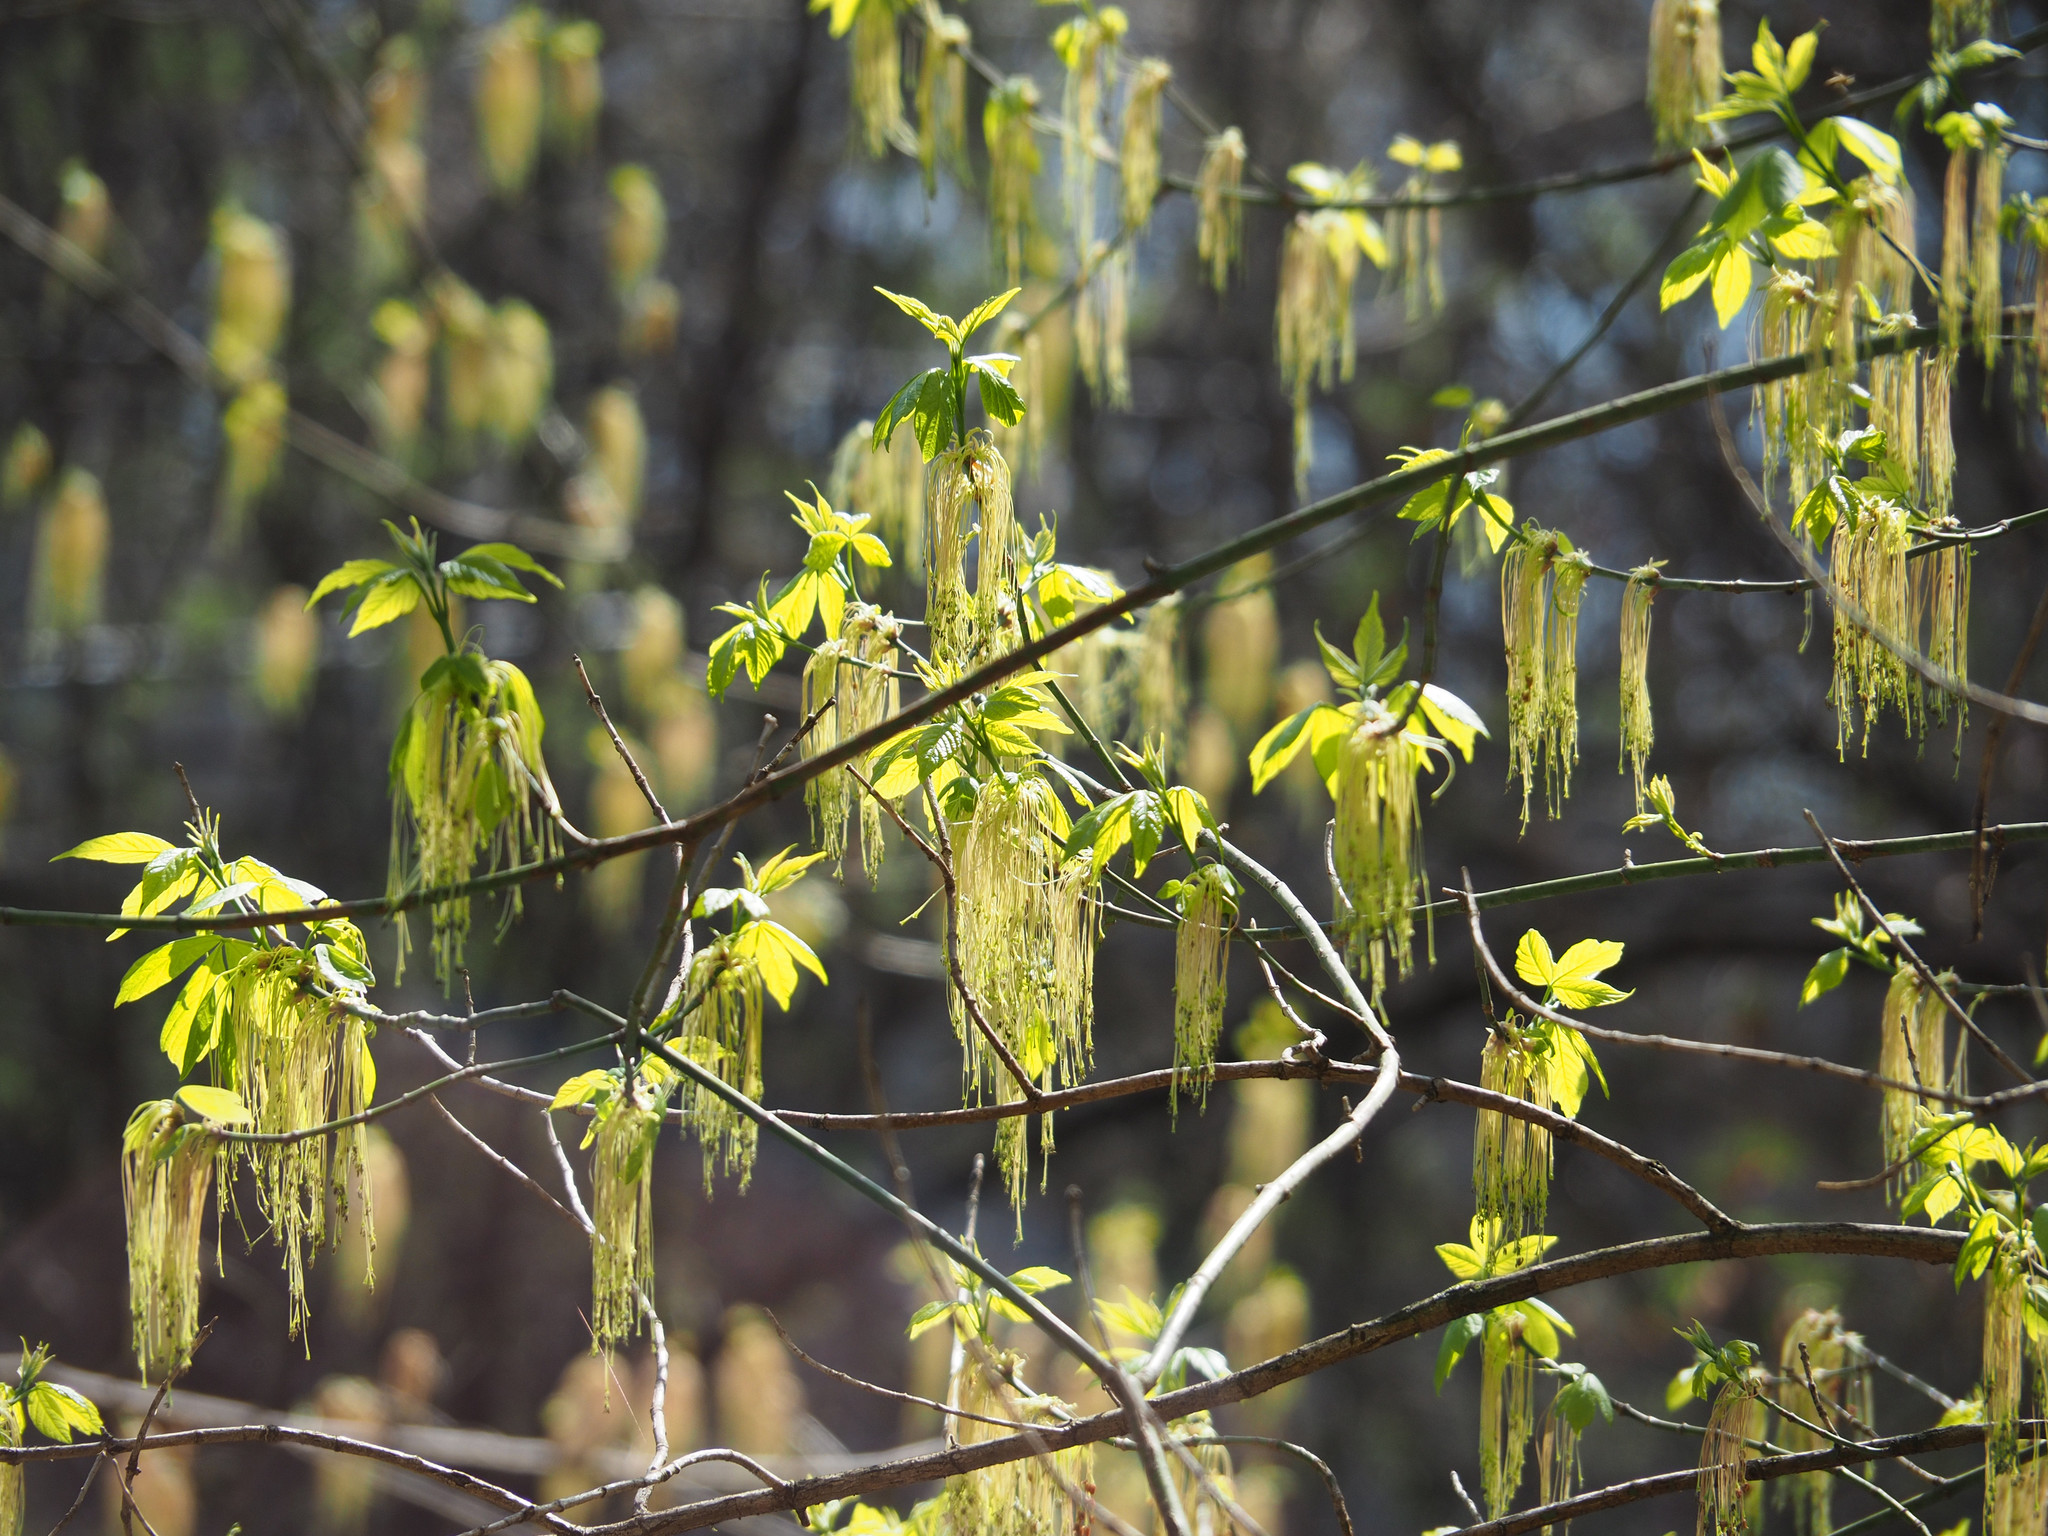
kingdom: Plantae
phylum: Tracheophyta
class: Magnoliopsida
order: Sapindales
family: Sapindaceae
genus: Acer
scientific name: Acer negundo
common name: Ashleaf maple
